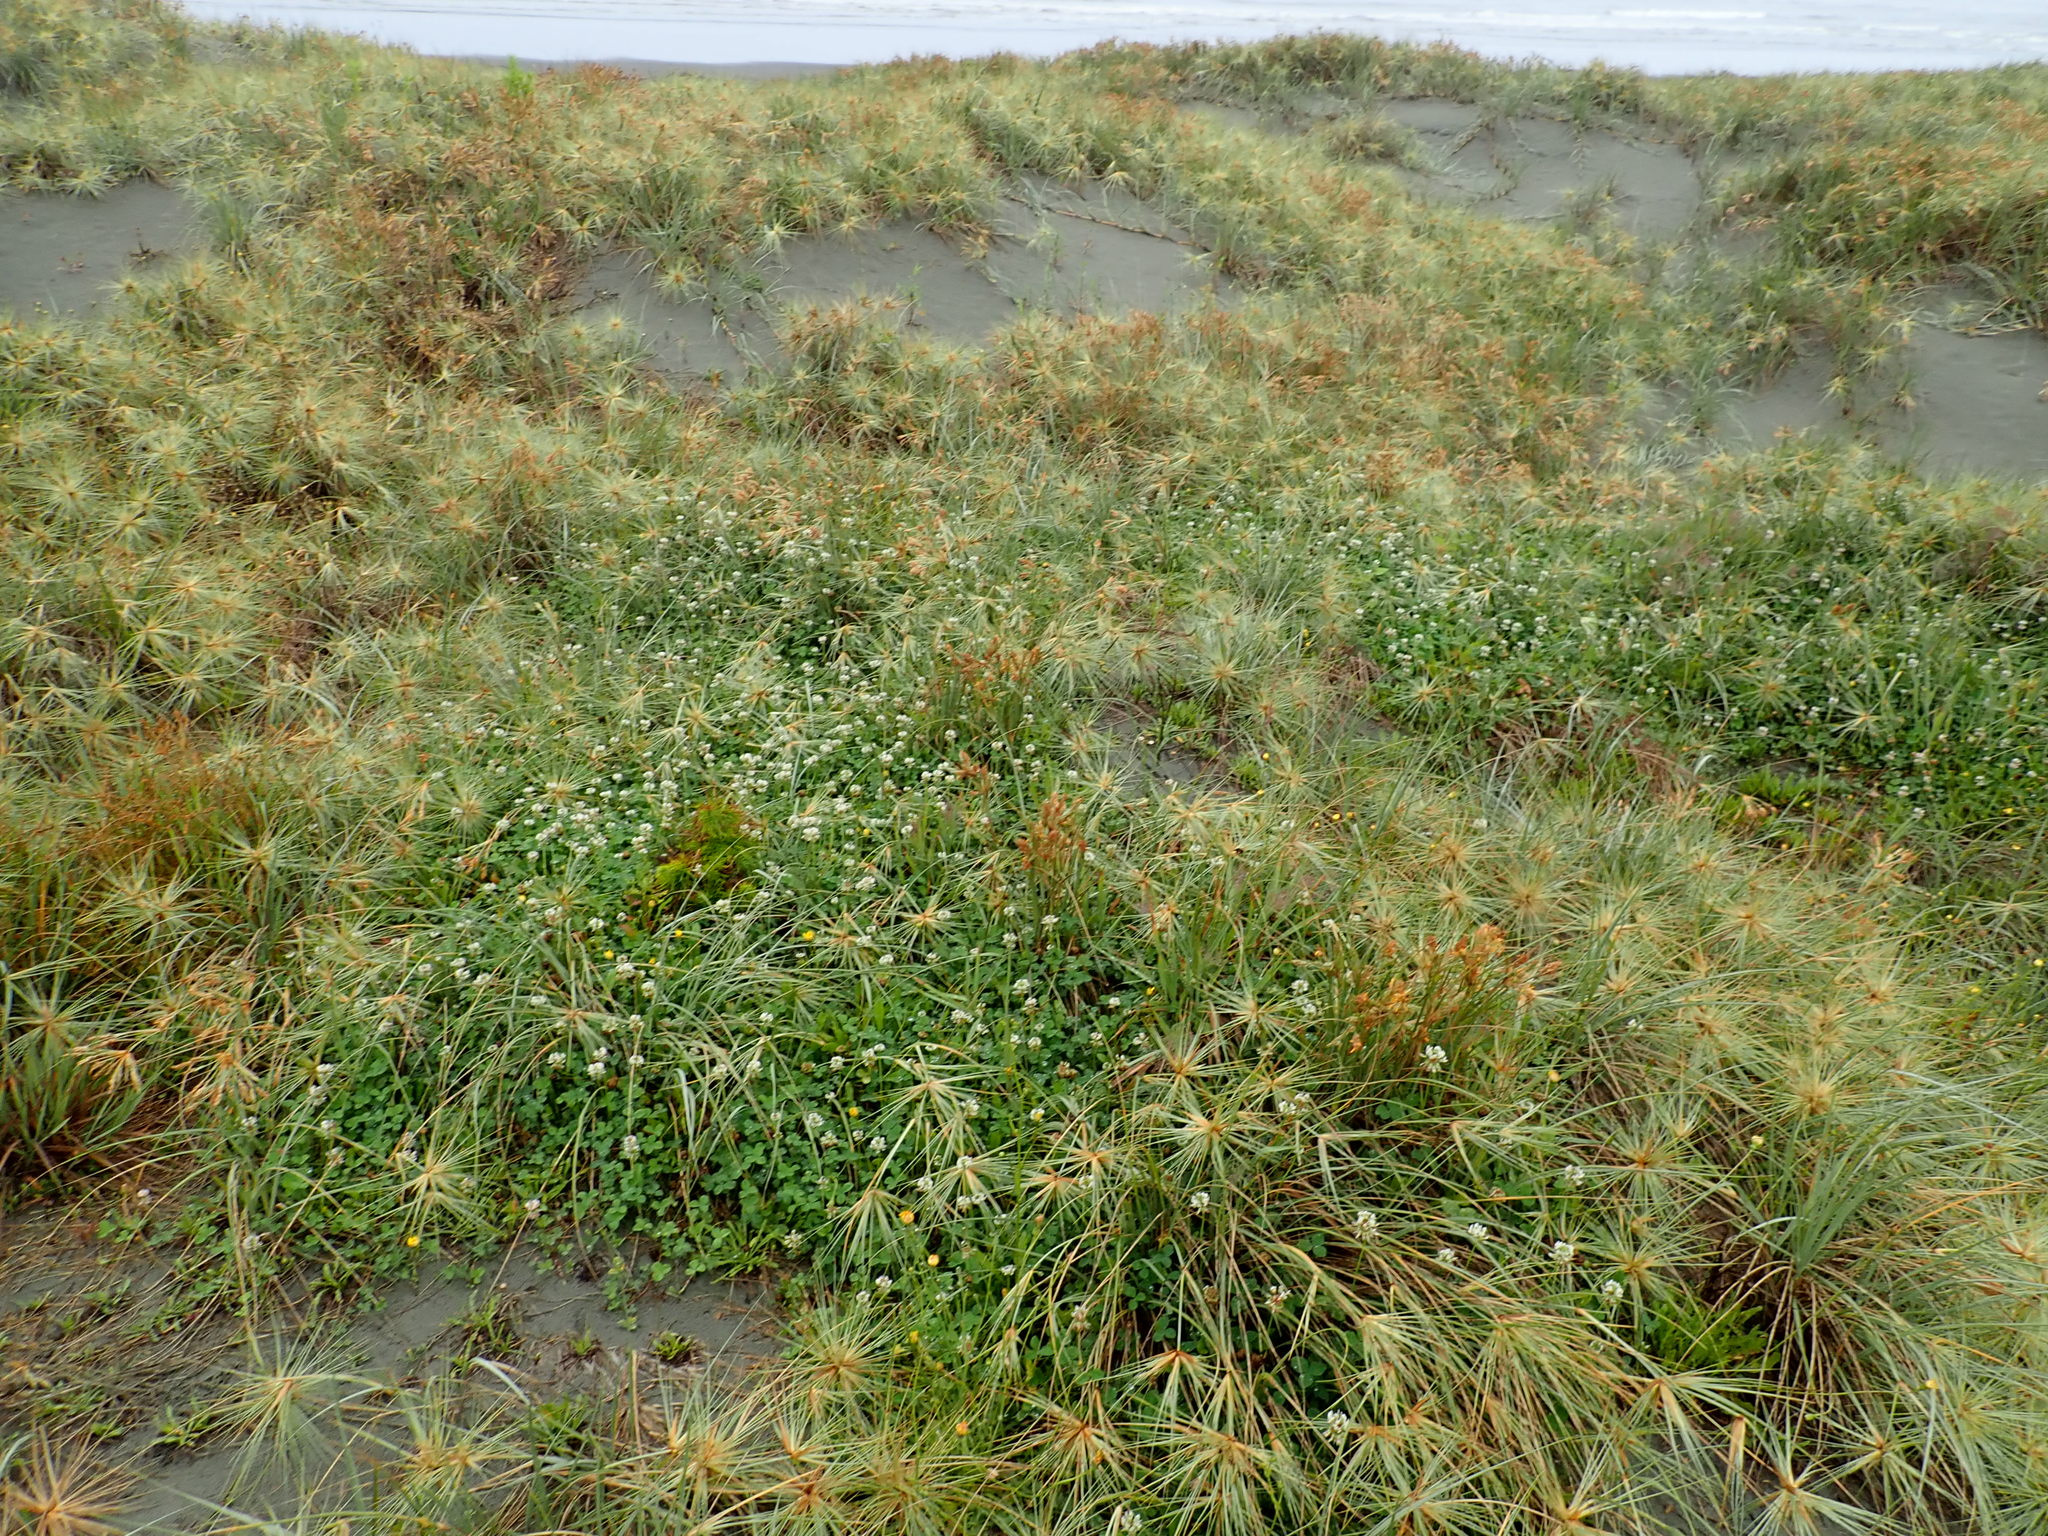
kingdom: Plantae
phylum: Tracheophyta
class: Magnoliopsida
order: Fabales
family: Fabaceae
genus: Trifolium
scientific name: Trifolium repens
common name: White clover
